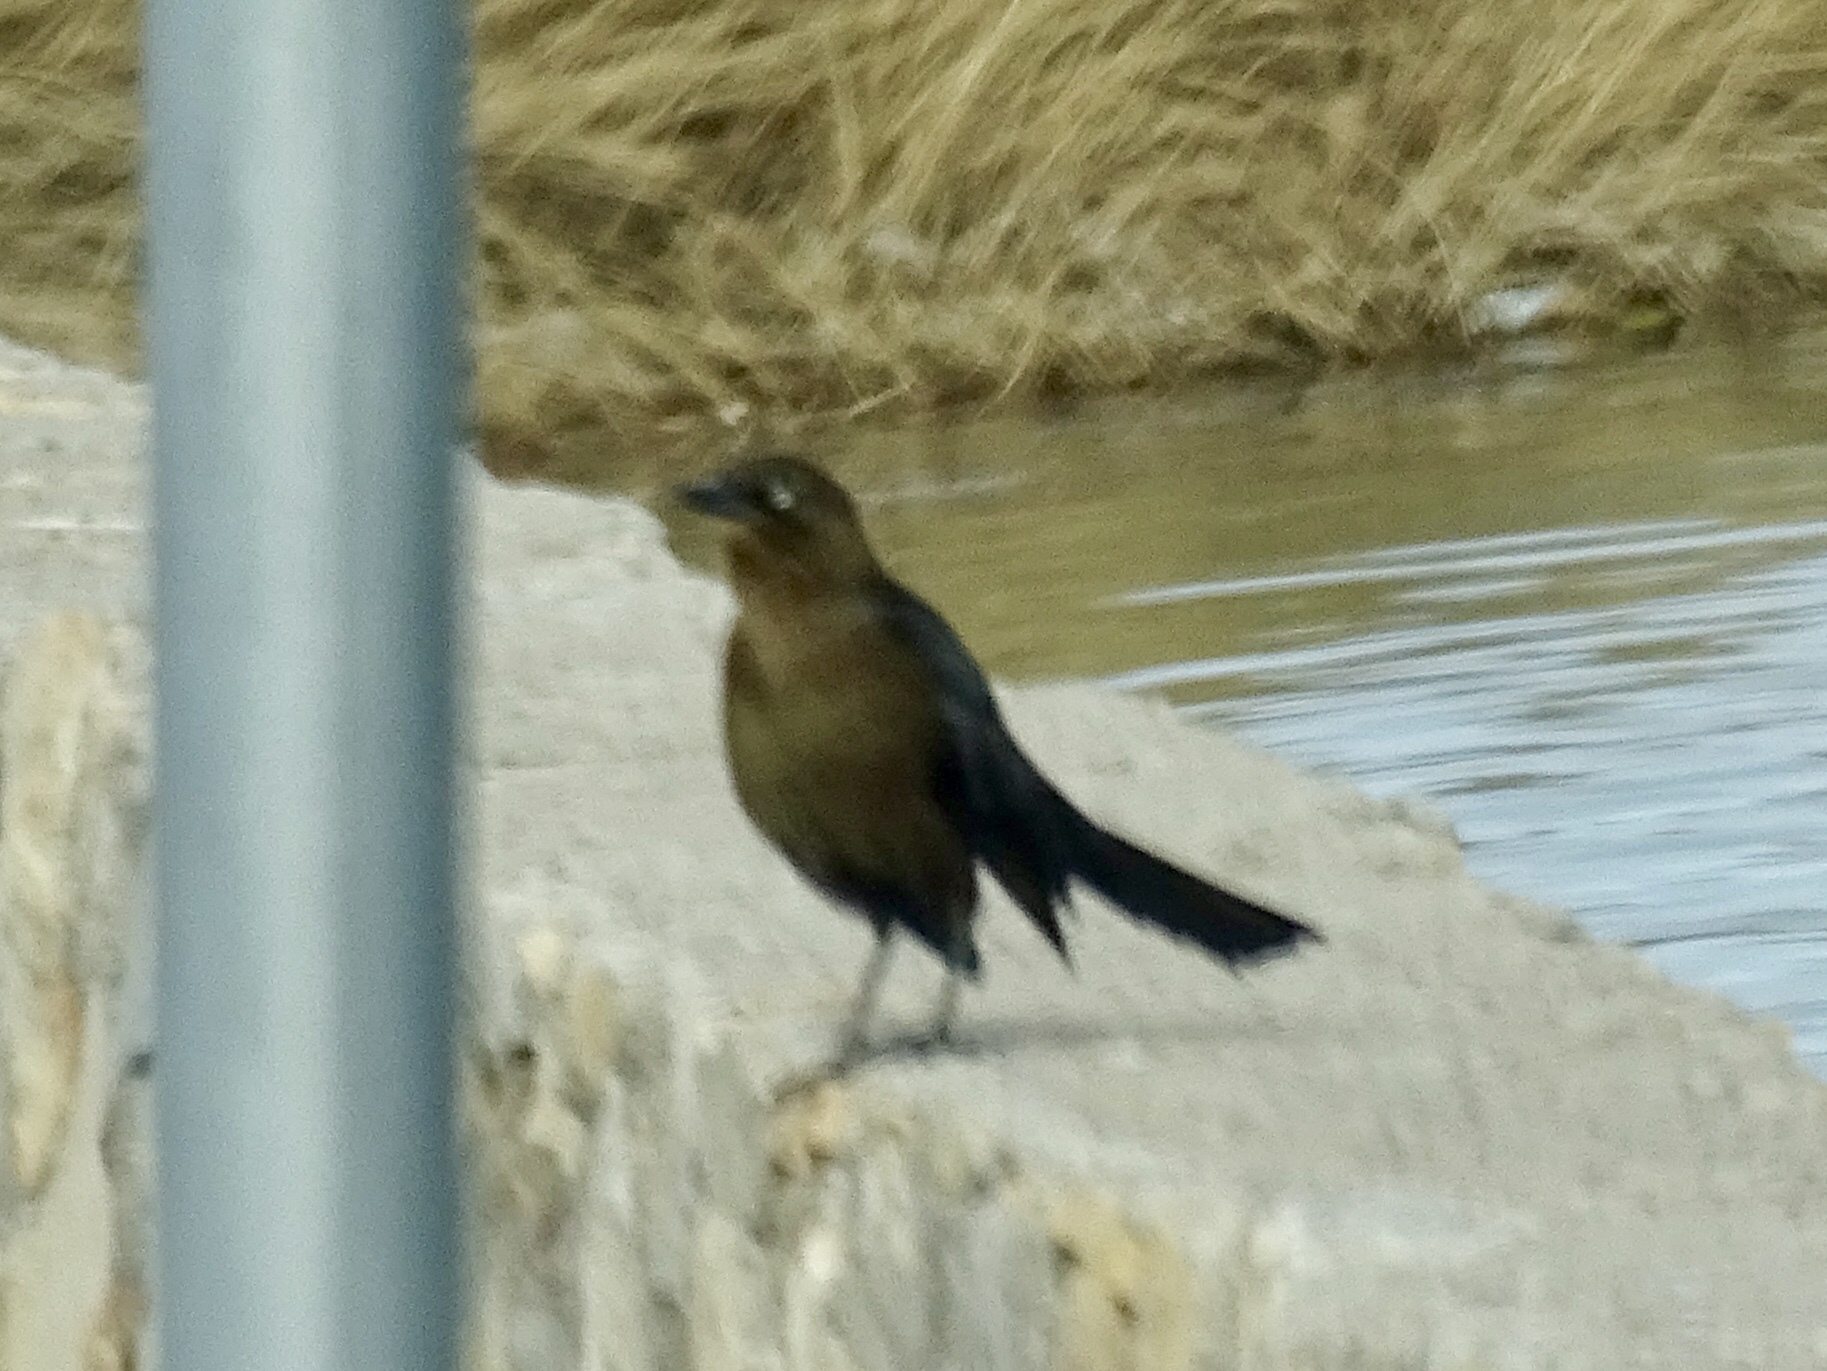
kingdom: Animalia
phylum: Chordata
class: Aves
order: Passeriformes
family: Icteridae
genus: Quiscalus
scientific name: Quiscalus mexicanus
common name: Great-tailed grackle
